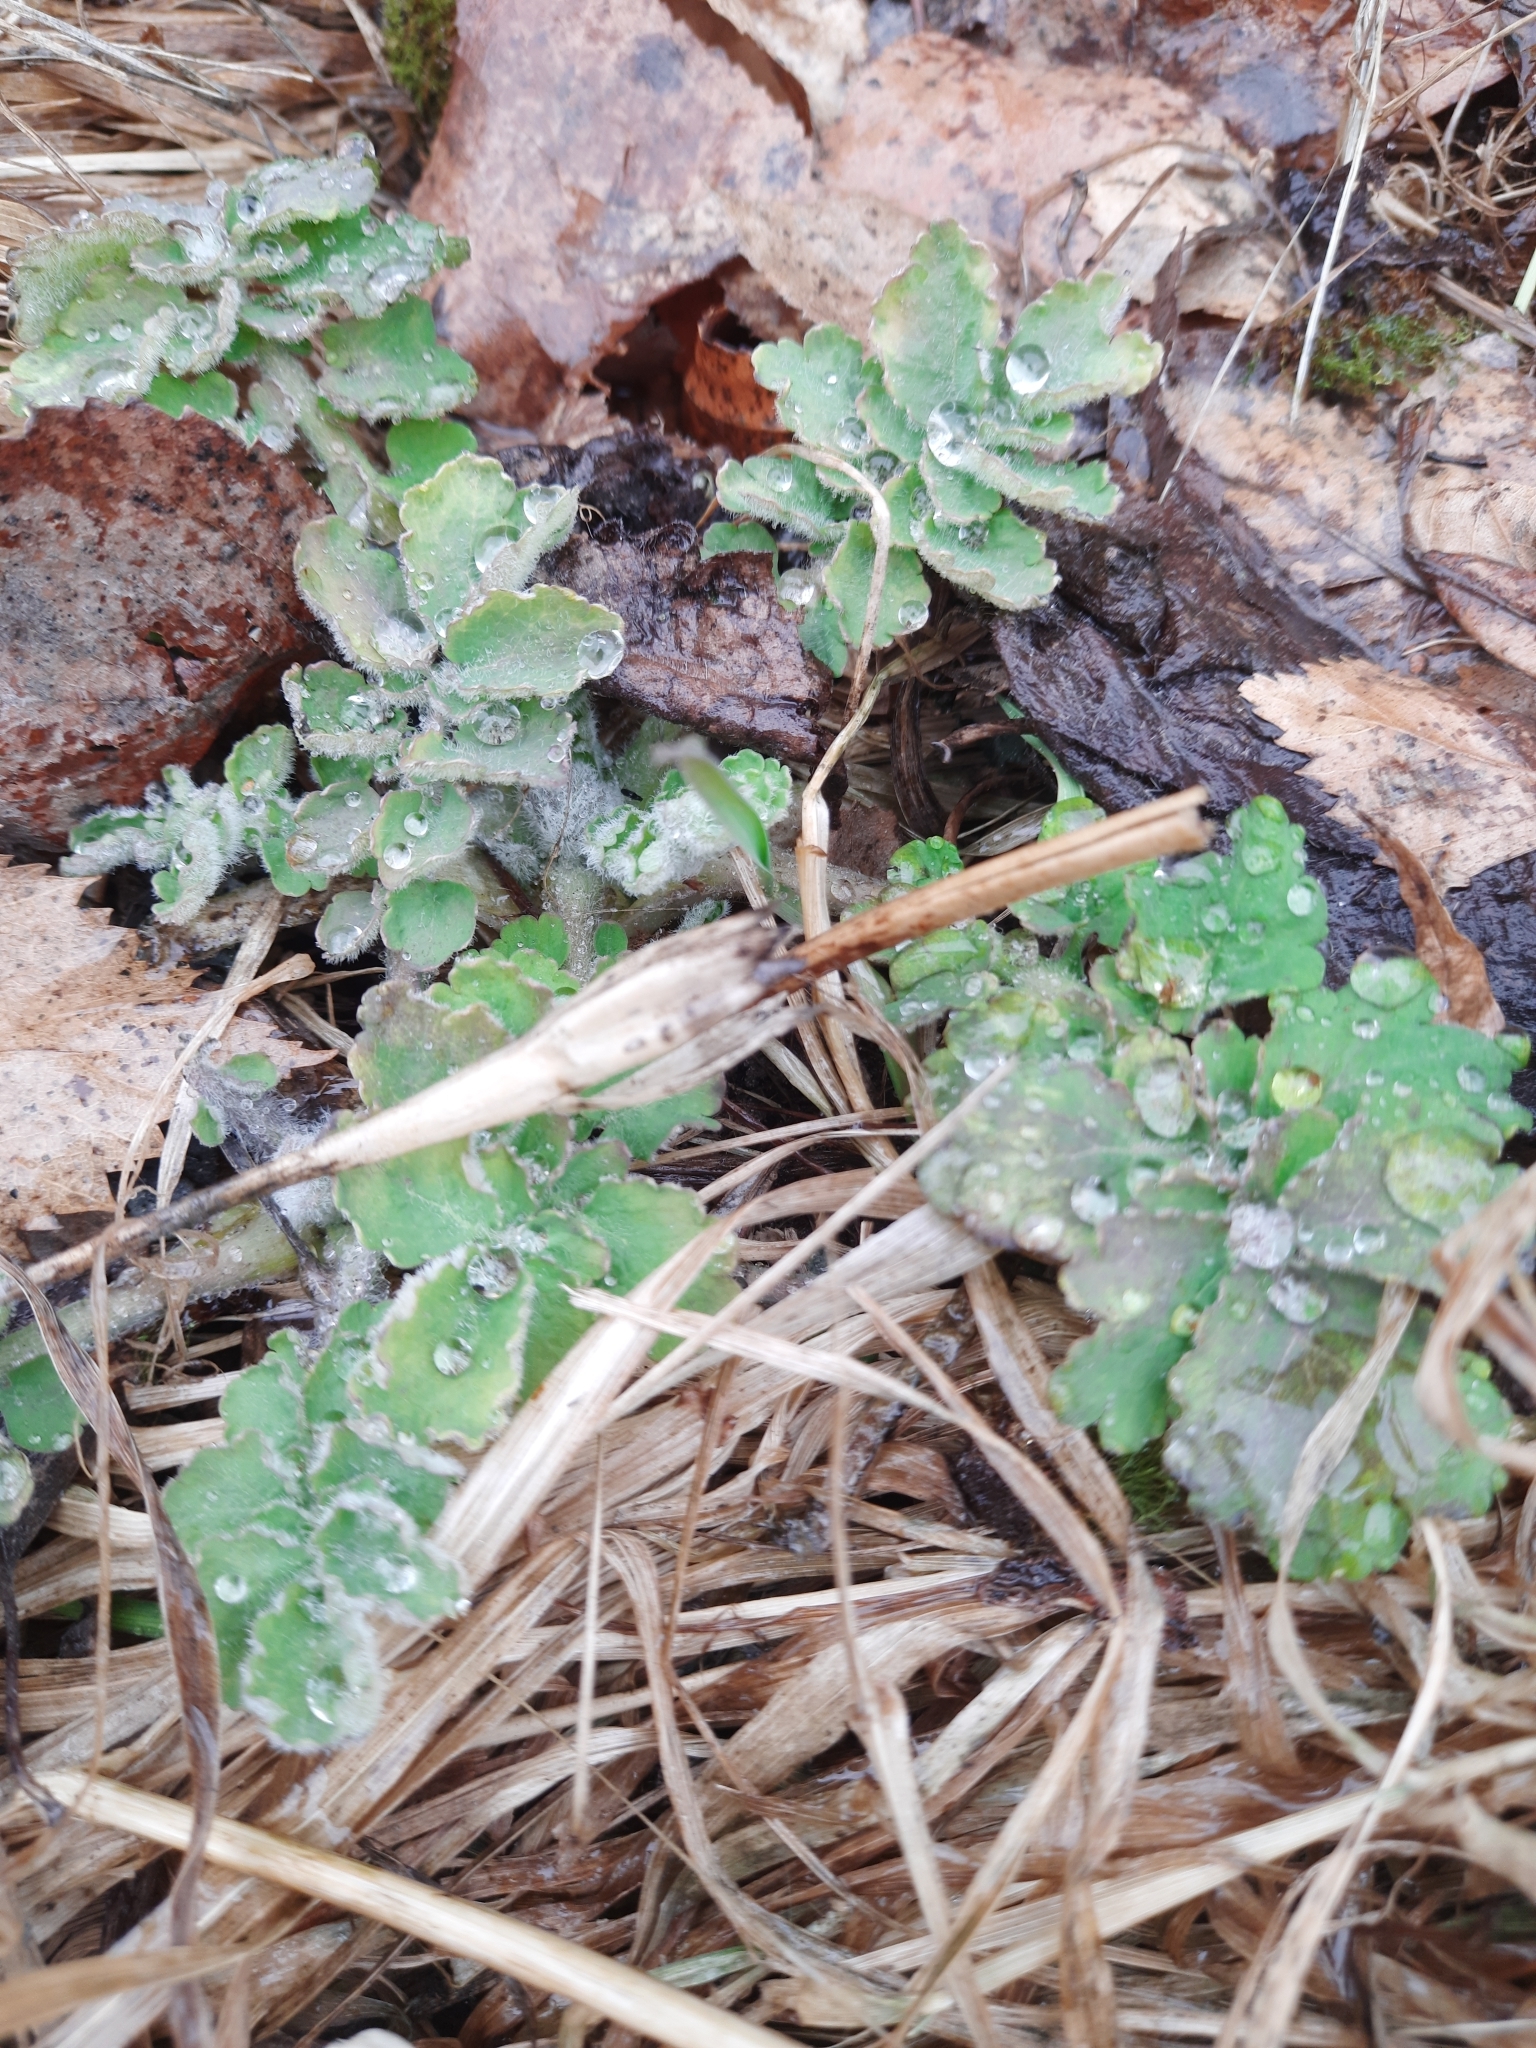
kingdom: Plantae
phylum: Tracheophyta
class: Magnoliopsida
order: Ranunculales
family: Papaveraceae
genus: Chelidonium
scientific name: Chelidonium majus
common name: Greater celandine
